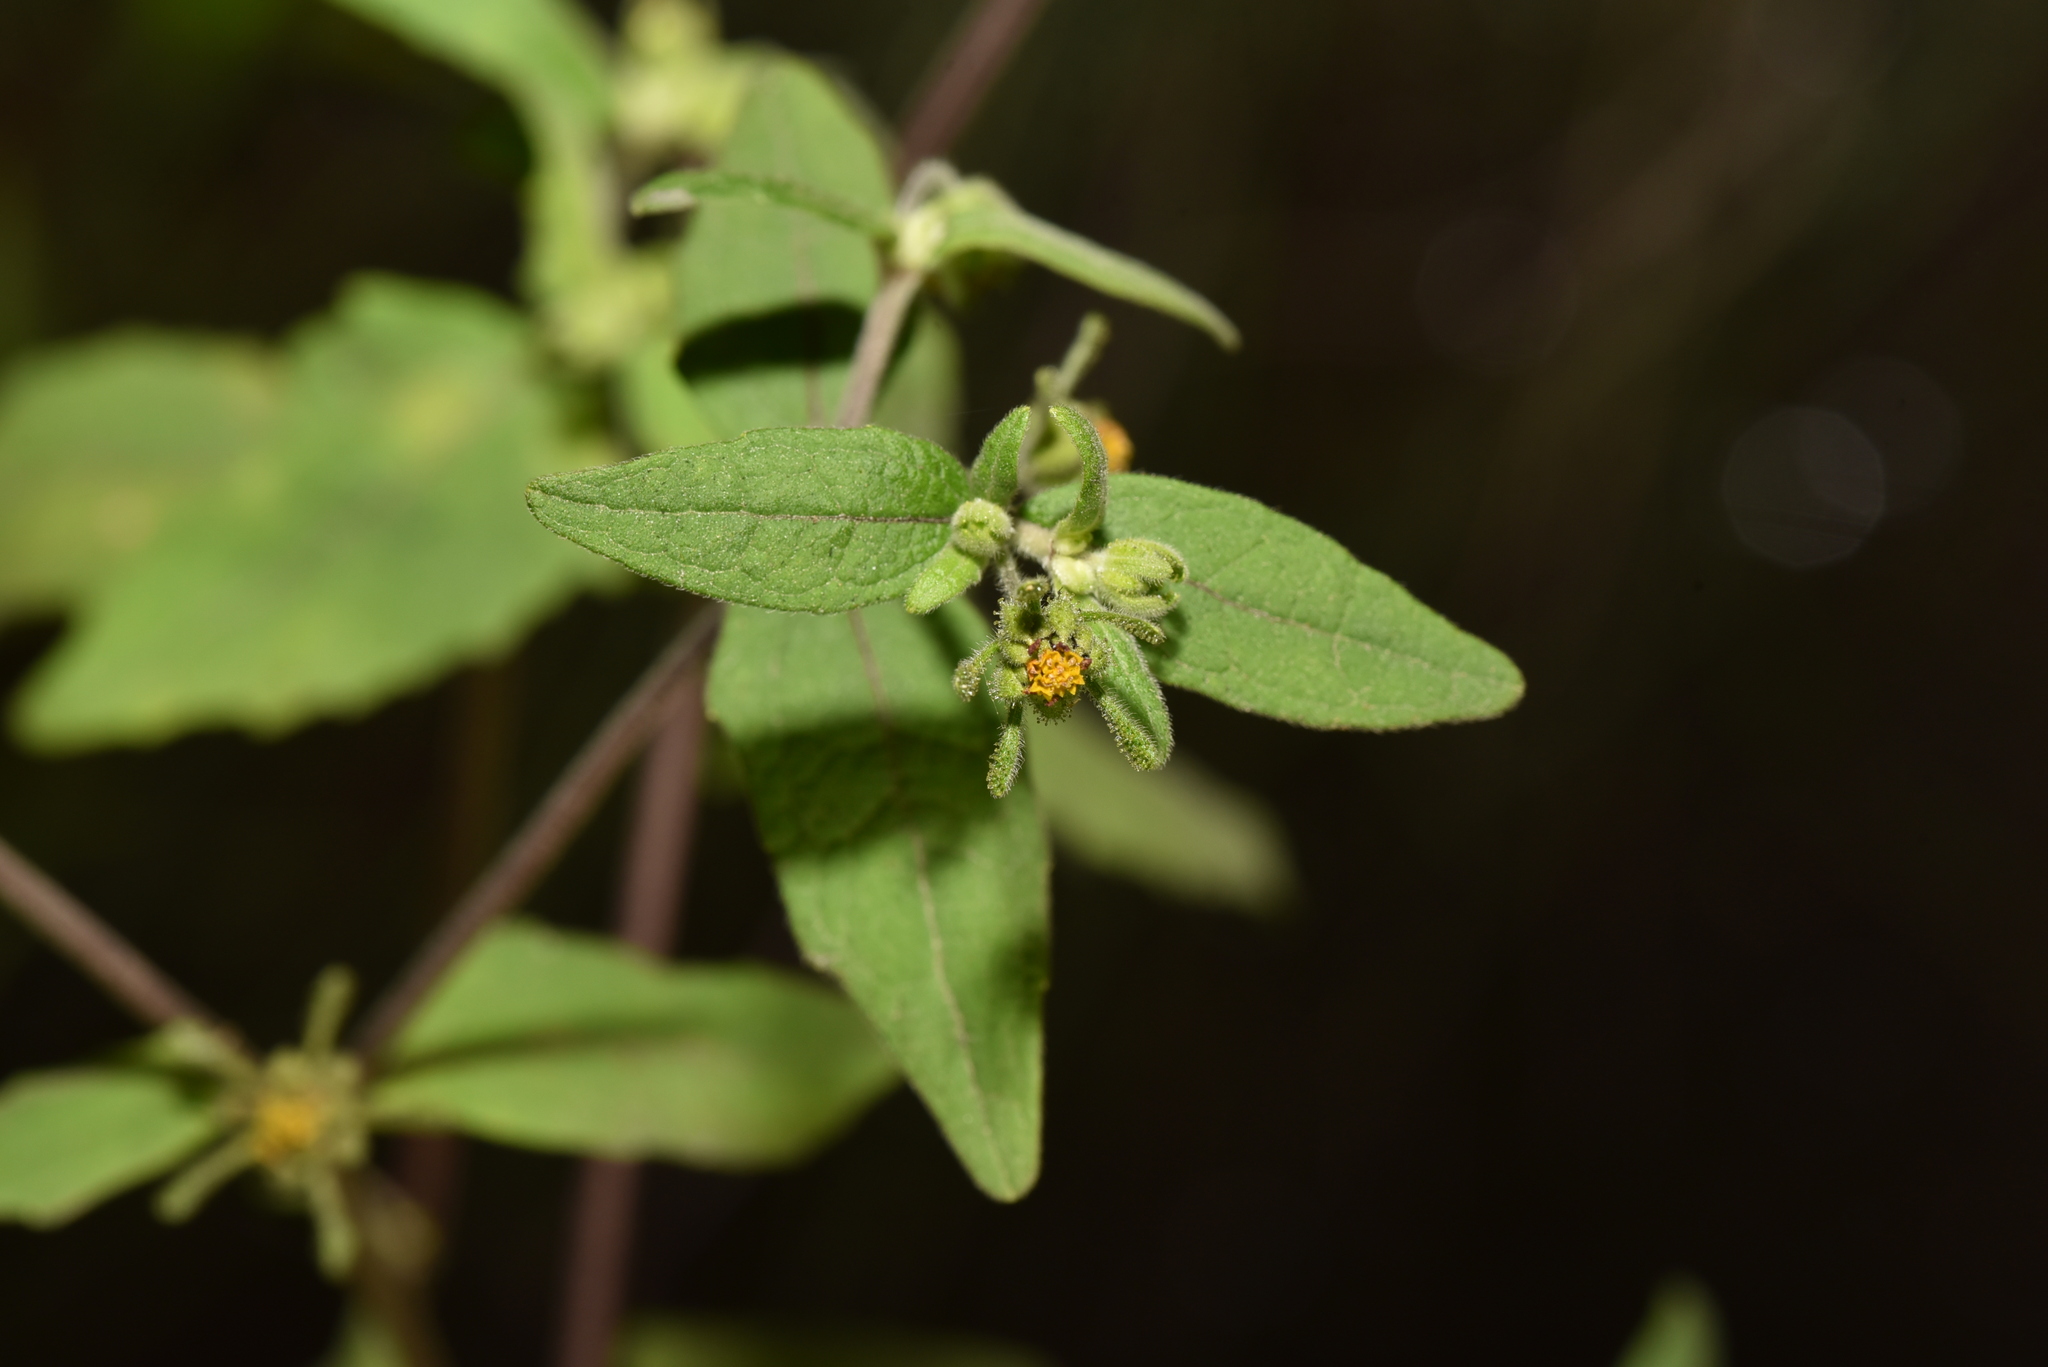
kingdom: Plantae
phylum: Tracheophyta
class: Magnoliopsida
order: Asterales
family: Asteraceae
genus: Sigesbeckia
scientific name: Sigesbeckia orientalis
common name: Eastern st paul's-wort
